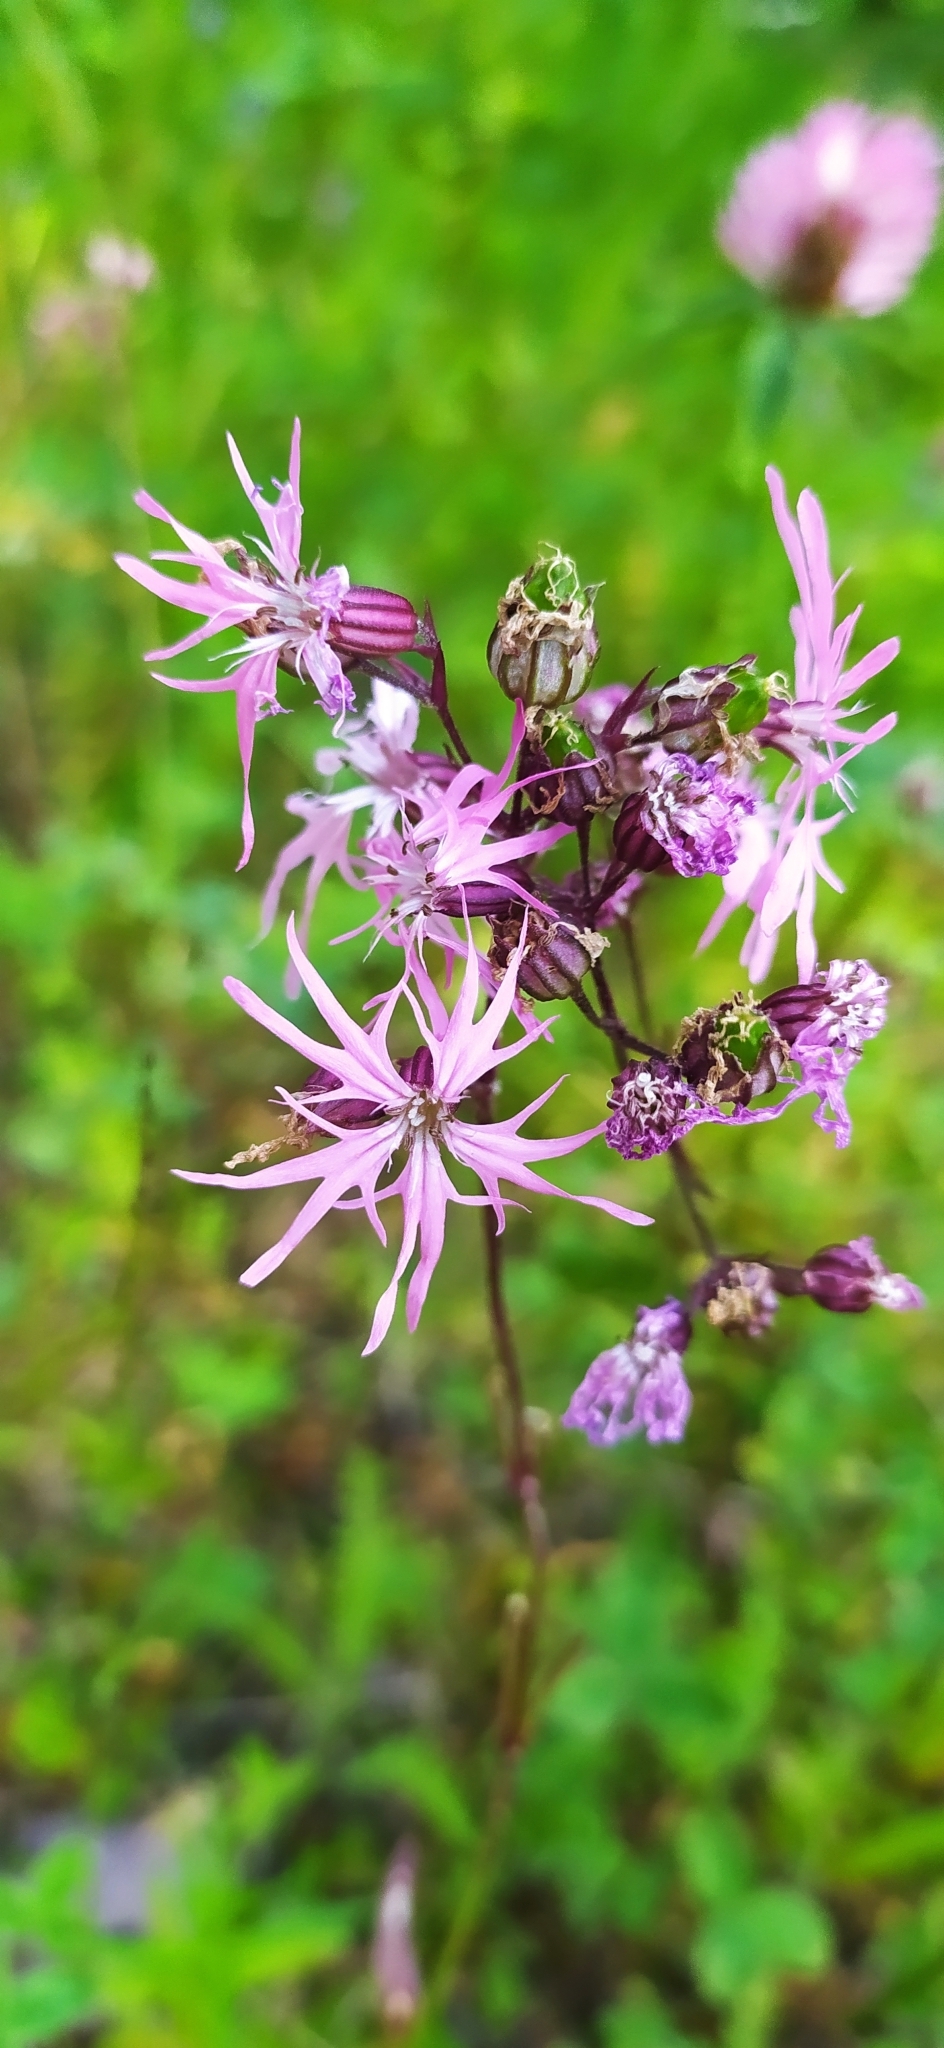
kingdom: Plantae
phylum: Tracheophyta
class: Magnoliopsida
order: Caryophyllales
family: Caryophyllaceae
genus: Silene
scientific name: Silene flos-cuculi
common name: Ragged-robin
